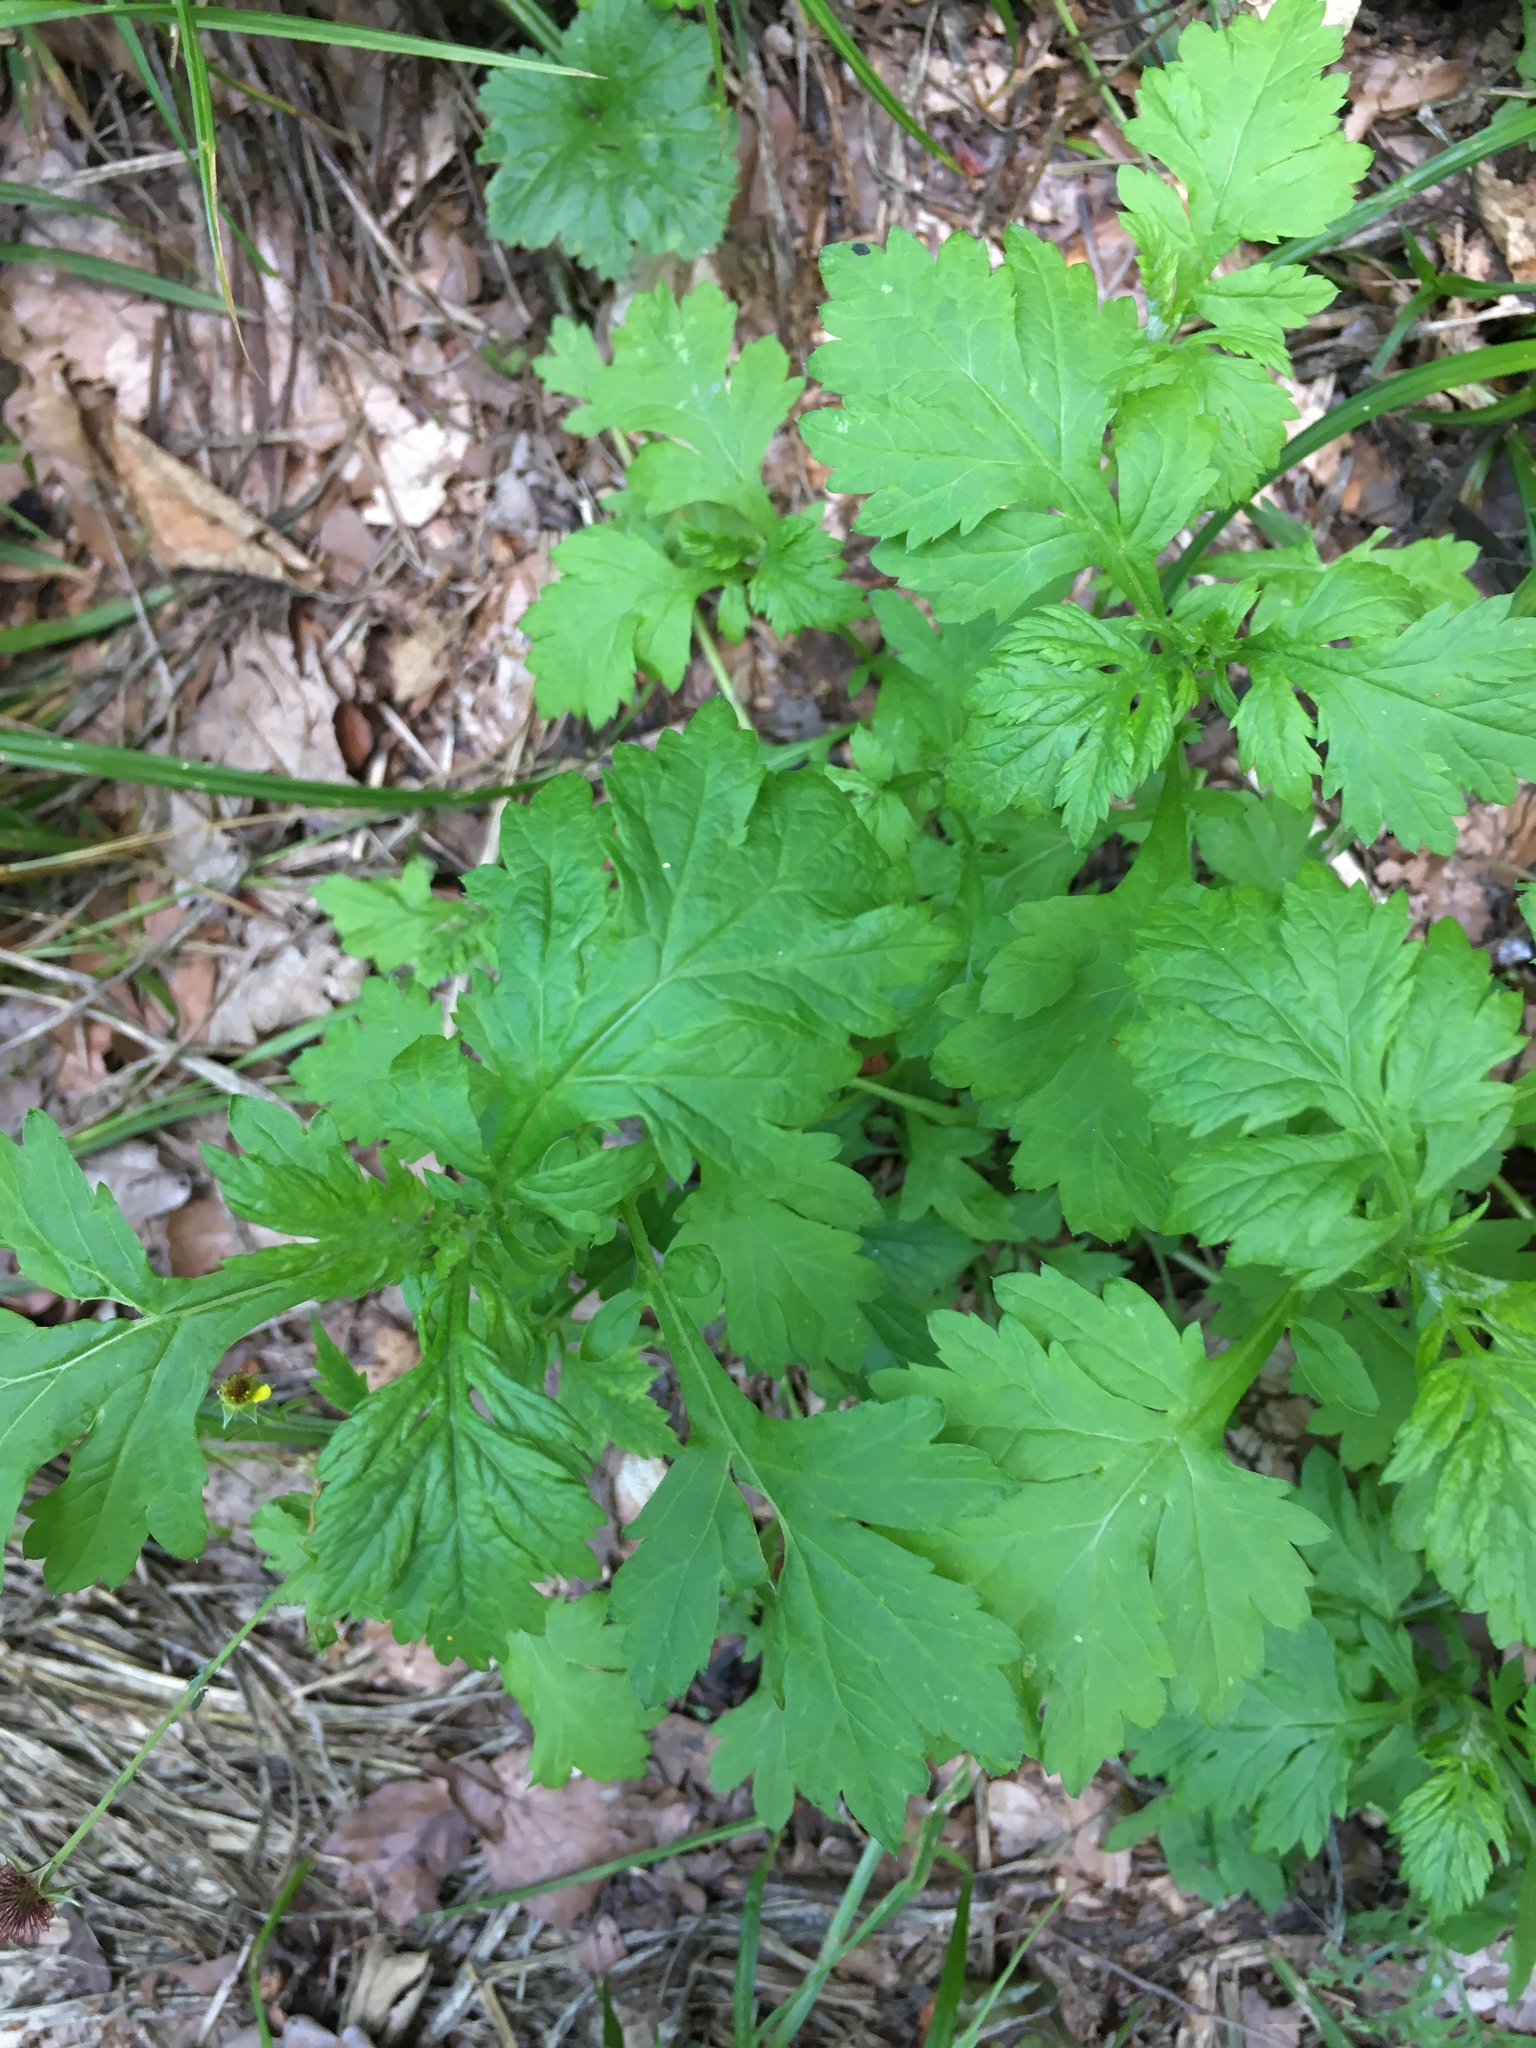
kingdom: Plantae
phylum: Tracheophyta
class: Magnoliopsida
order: Asterales
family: Asteraceae
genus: Artemisia
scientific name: Artemisia vulgaris
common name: Mugwort
